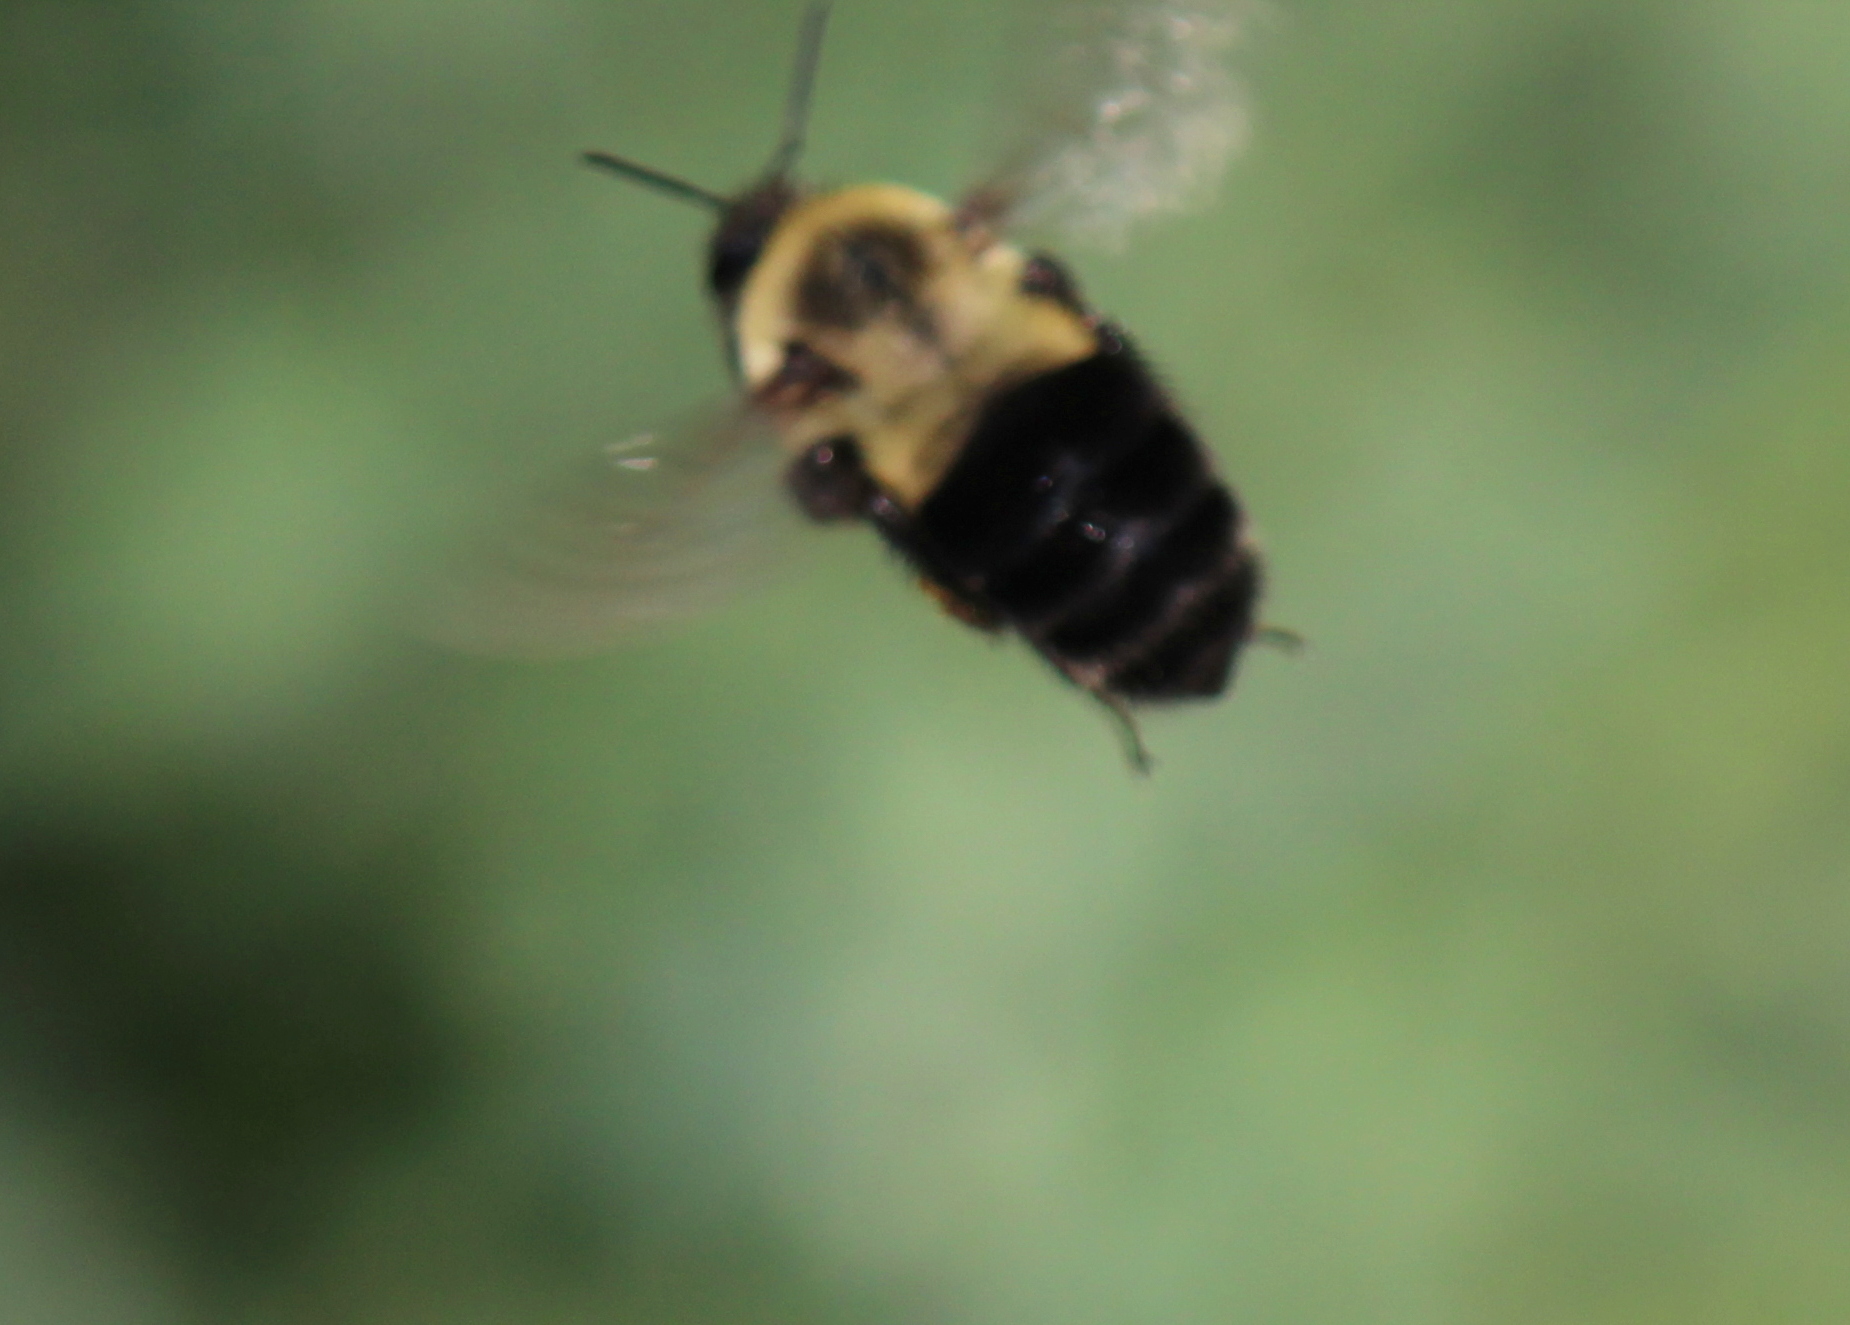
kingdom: Animalia
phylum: Arthropoda
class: Insecta
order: Hymenoptera
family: Apidae
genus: Bombus
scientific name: Bombus impatiens
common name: Common eastern bumble bee
